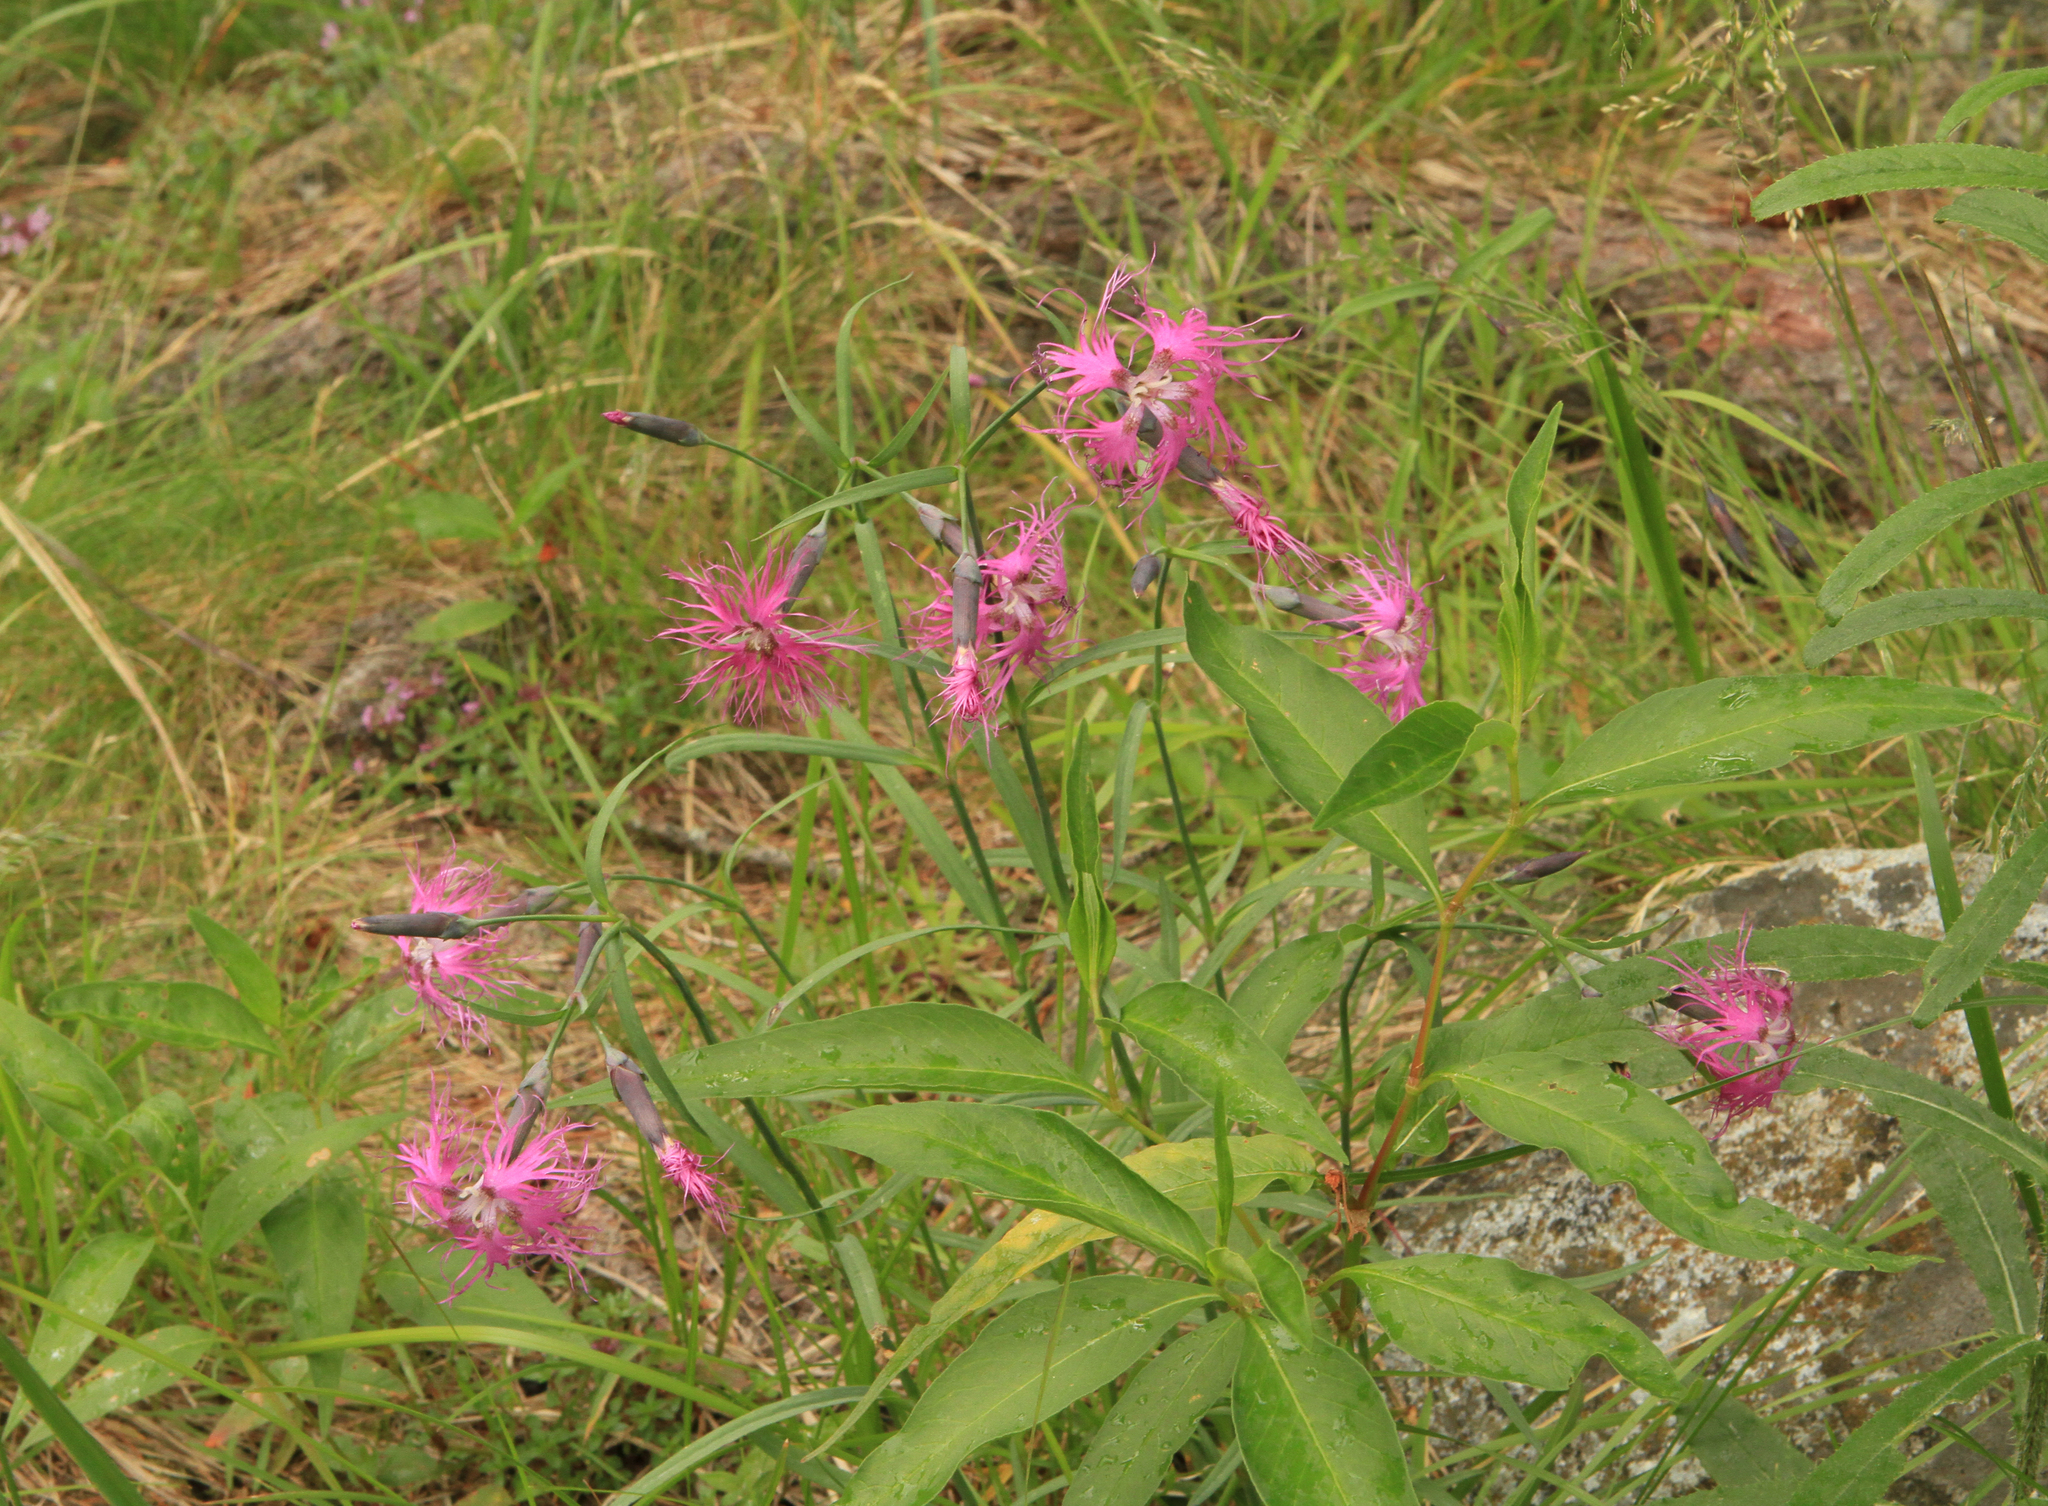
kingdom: Plantae
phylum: Tracheophyta
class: Magnoliopsida
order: Caryophyllales
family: Caryophyllaceae
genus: Dianthus
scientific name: Dianthus superbus
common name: Fringed pink
